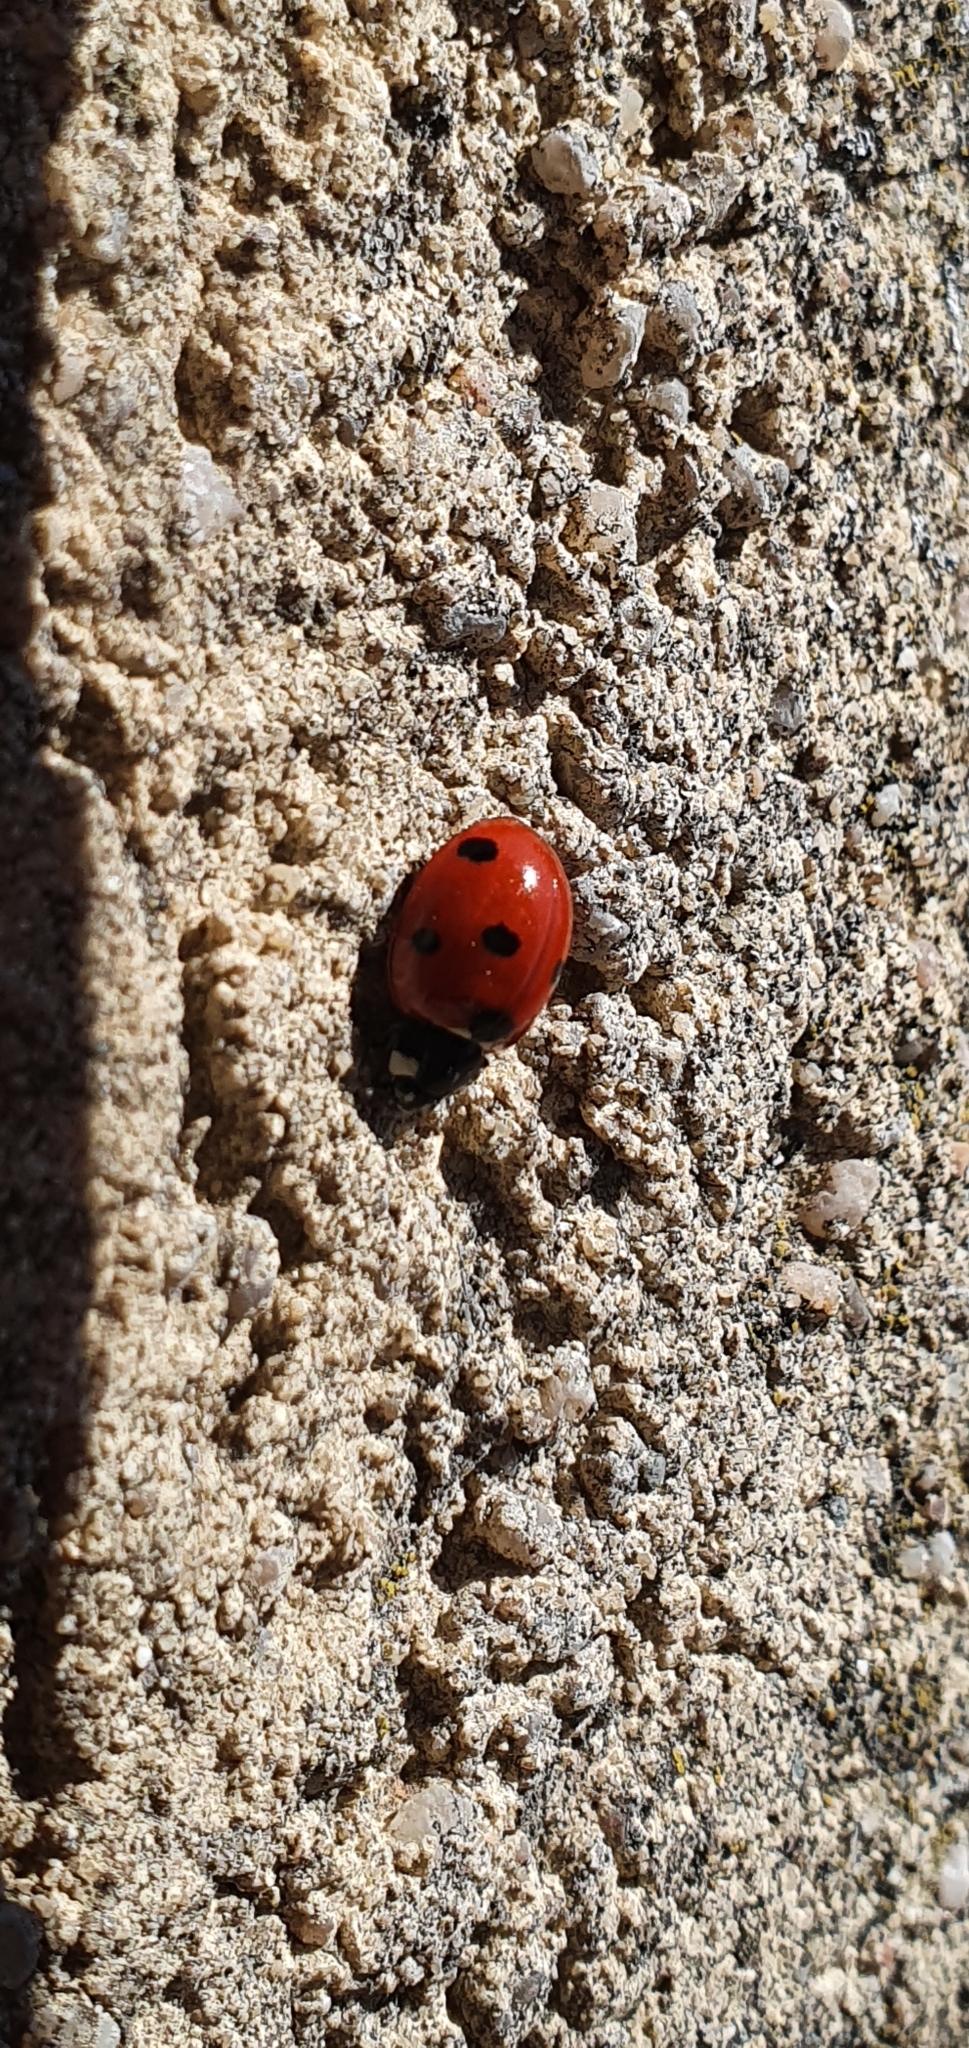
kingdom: Animalia
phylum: Arthropoda
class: Insecta
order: Coleoptera
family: Coccinellidae
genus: Coccinella
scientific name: Coccinella septempunctata
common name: Sevenspotted lady beetle
